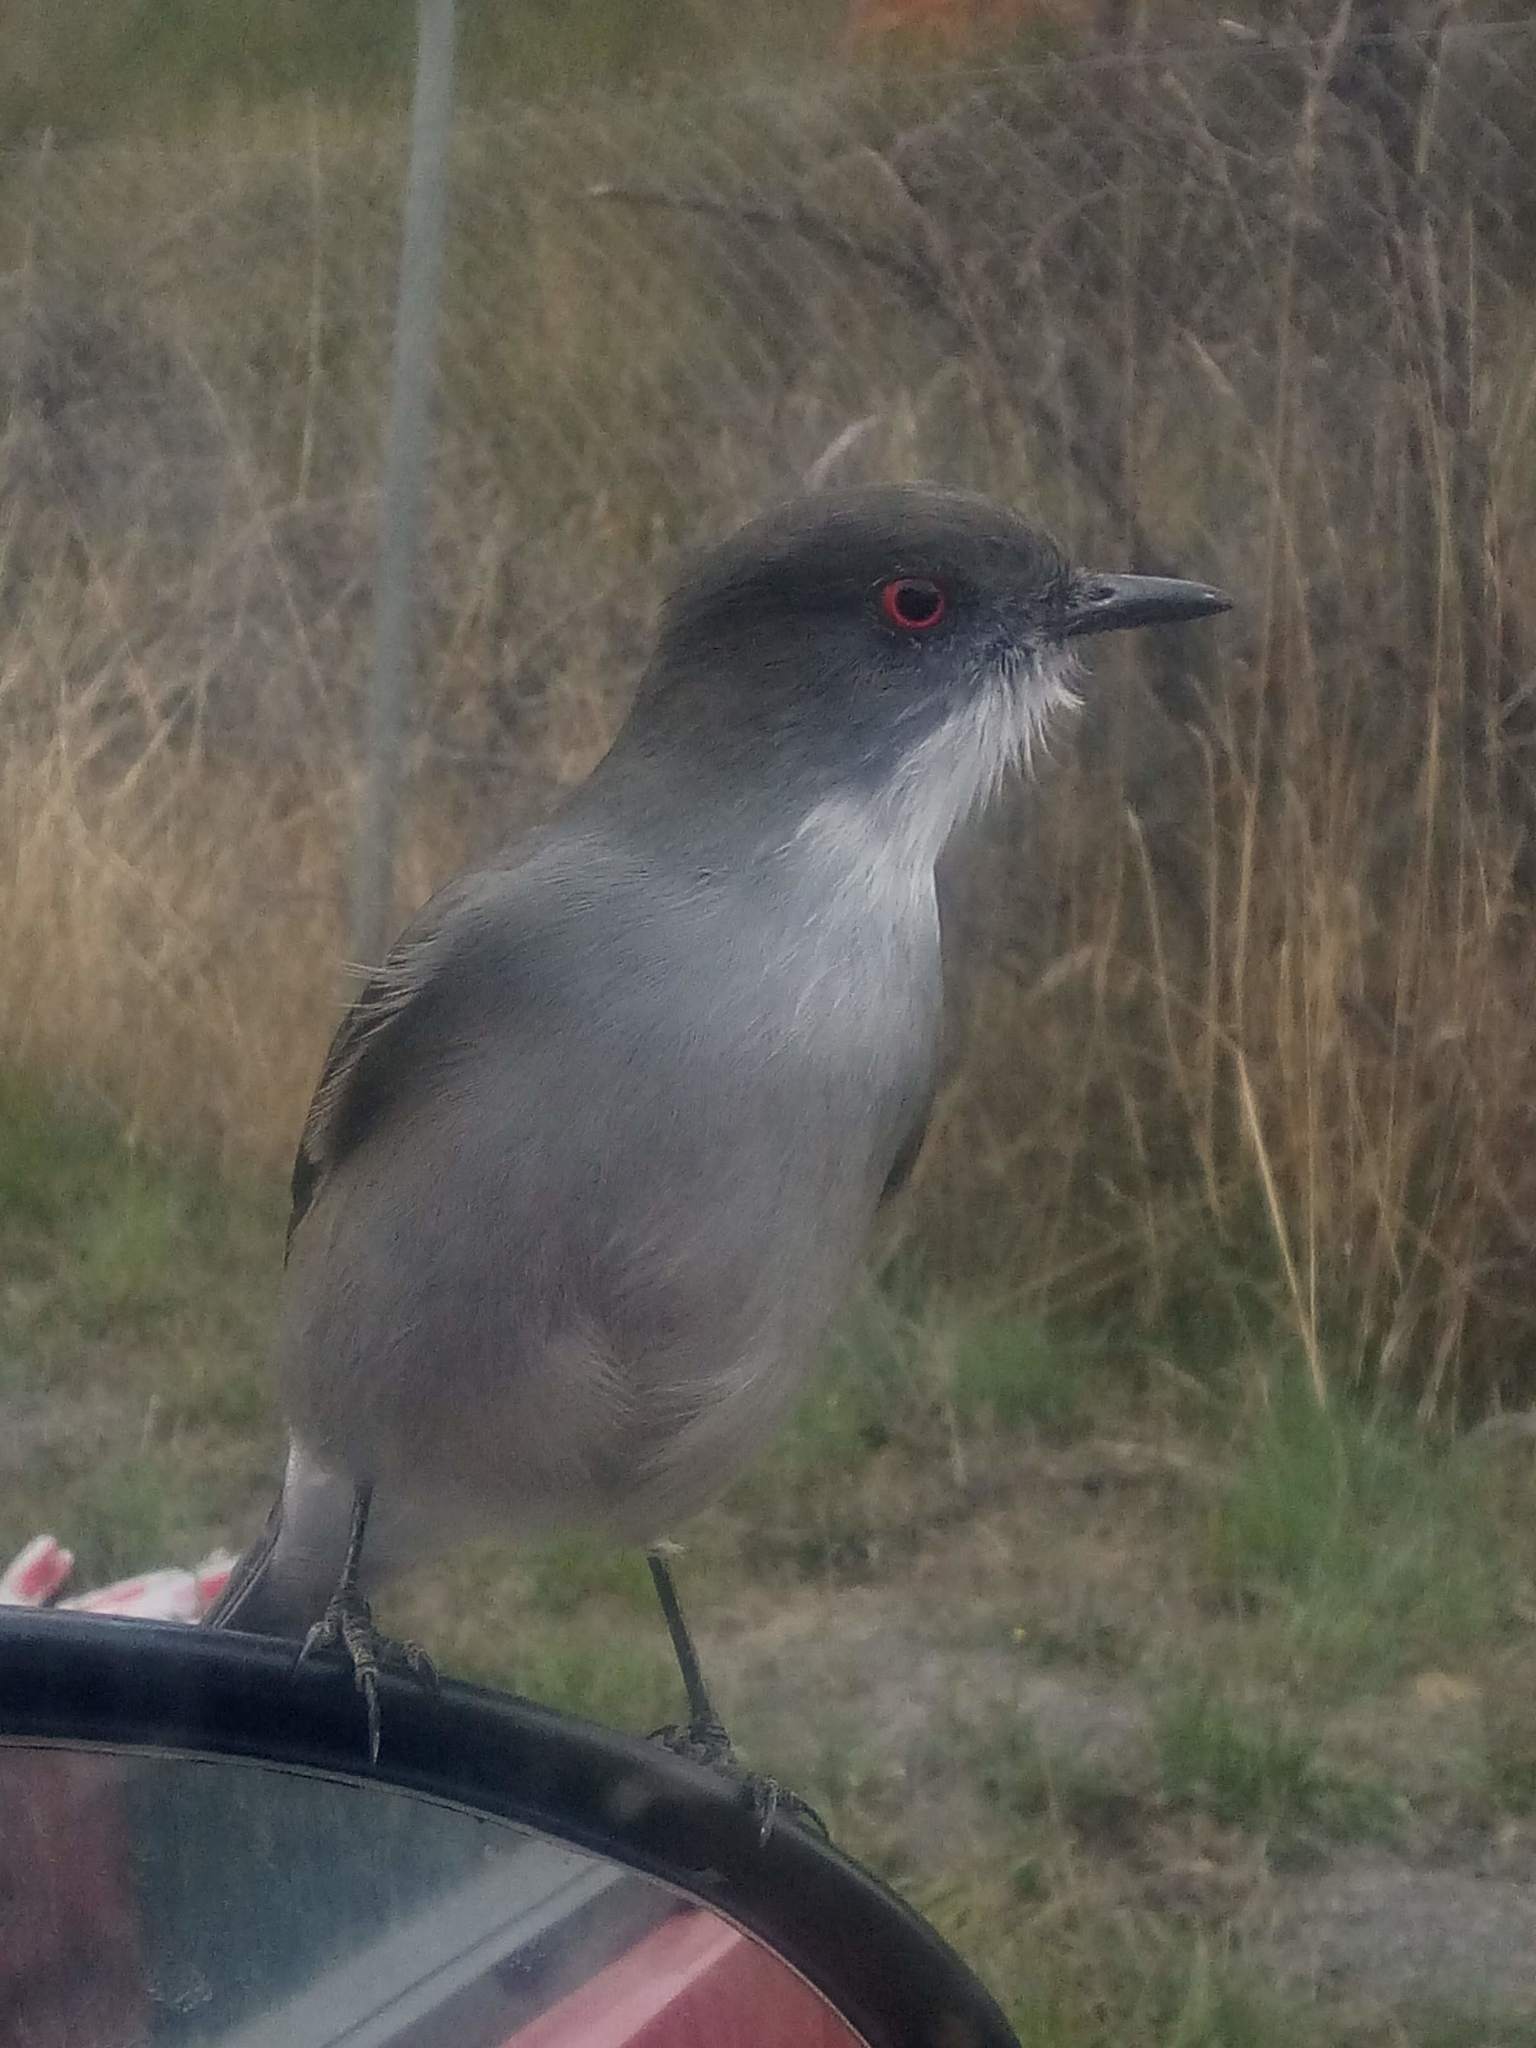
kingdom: Animalia
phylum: Chordata
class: Aves
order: Passeriformes
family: Tyrannidae
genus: Xolmis
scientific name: Xolmis pyrope
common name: Fire-eyed diucon
